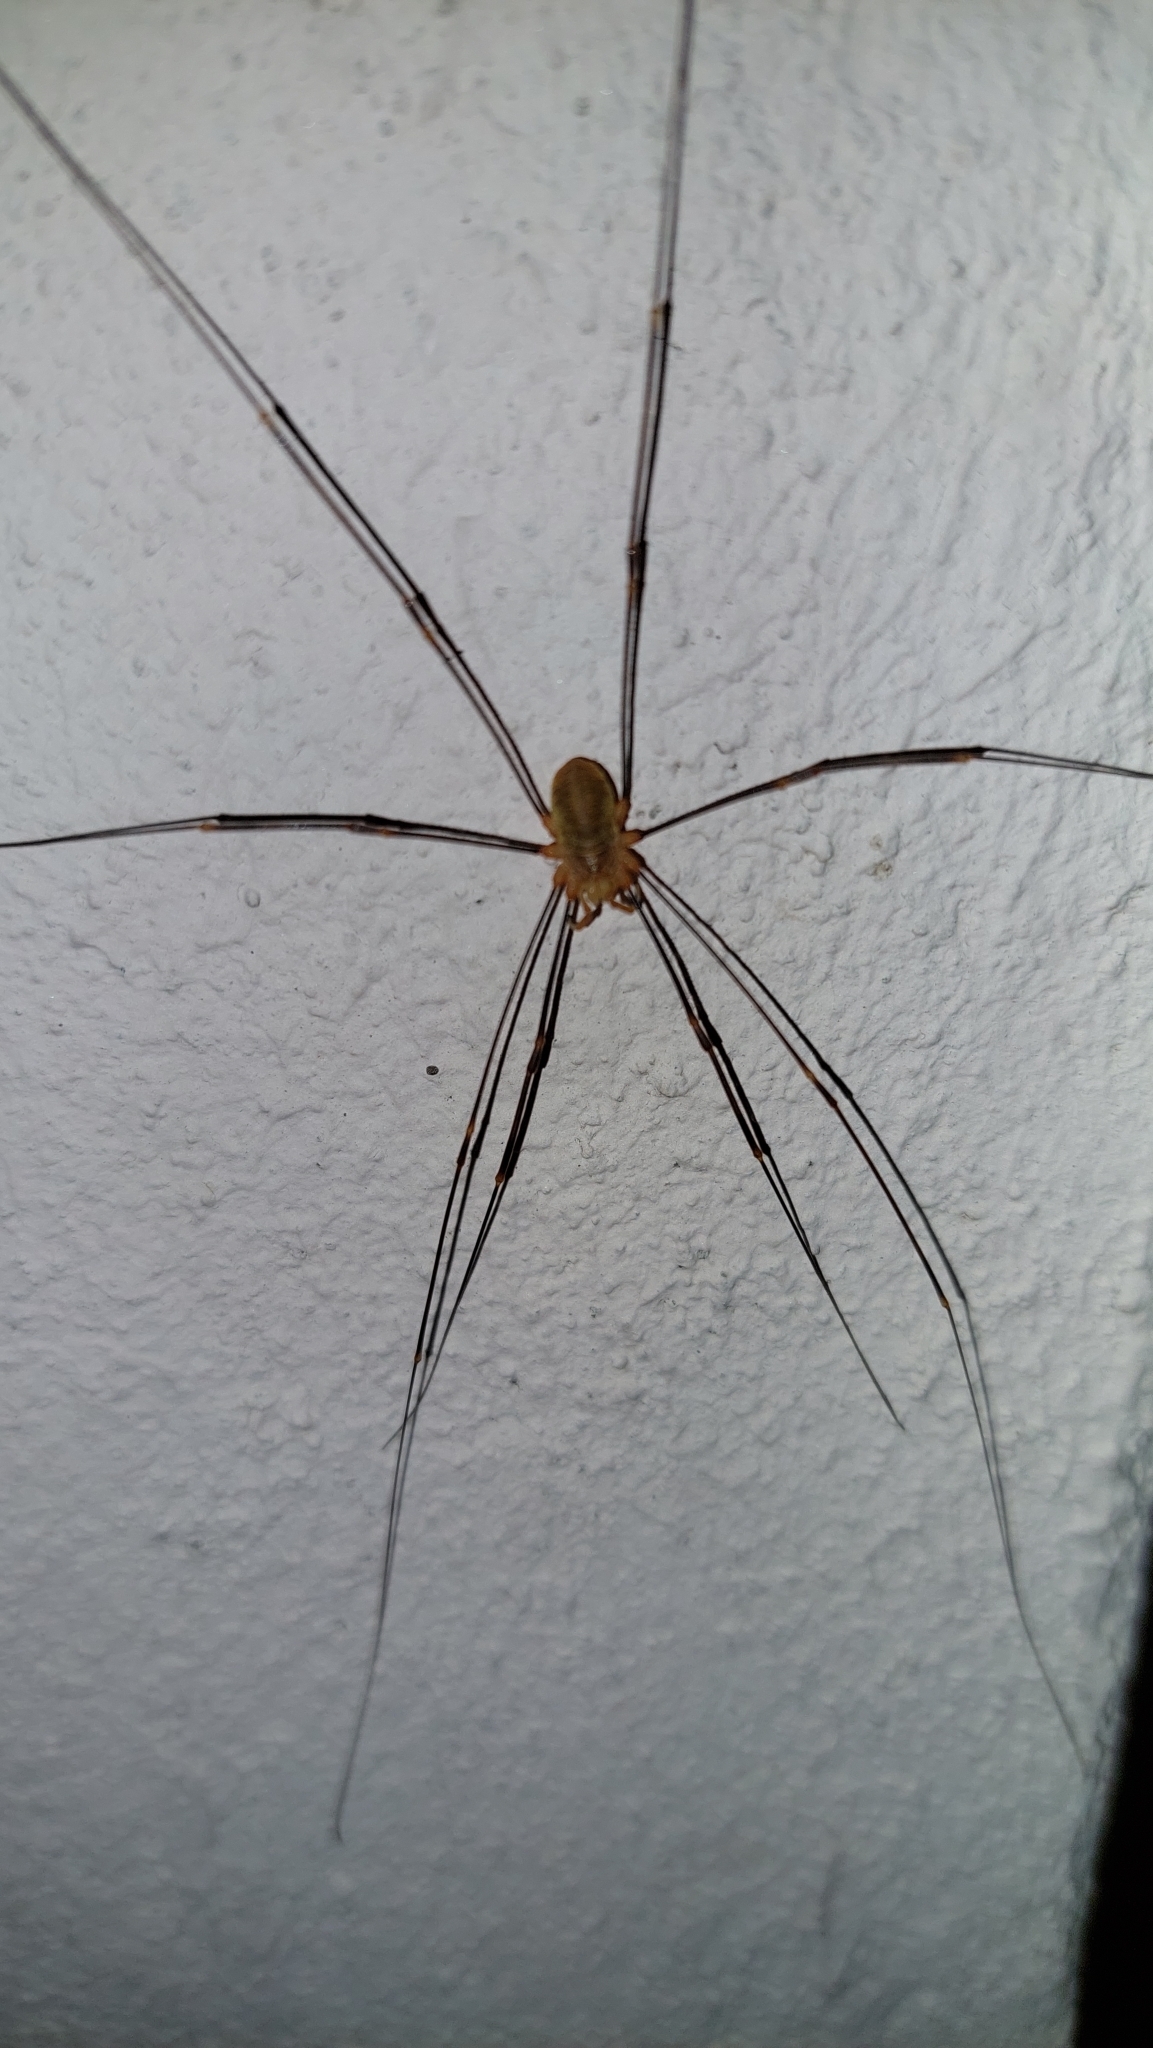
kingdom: Animalia
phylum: Arthropoda
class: Arachnida
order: Opiliones
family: Phalangiidae
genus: Opilio
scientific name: Opilio canestrinii
